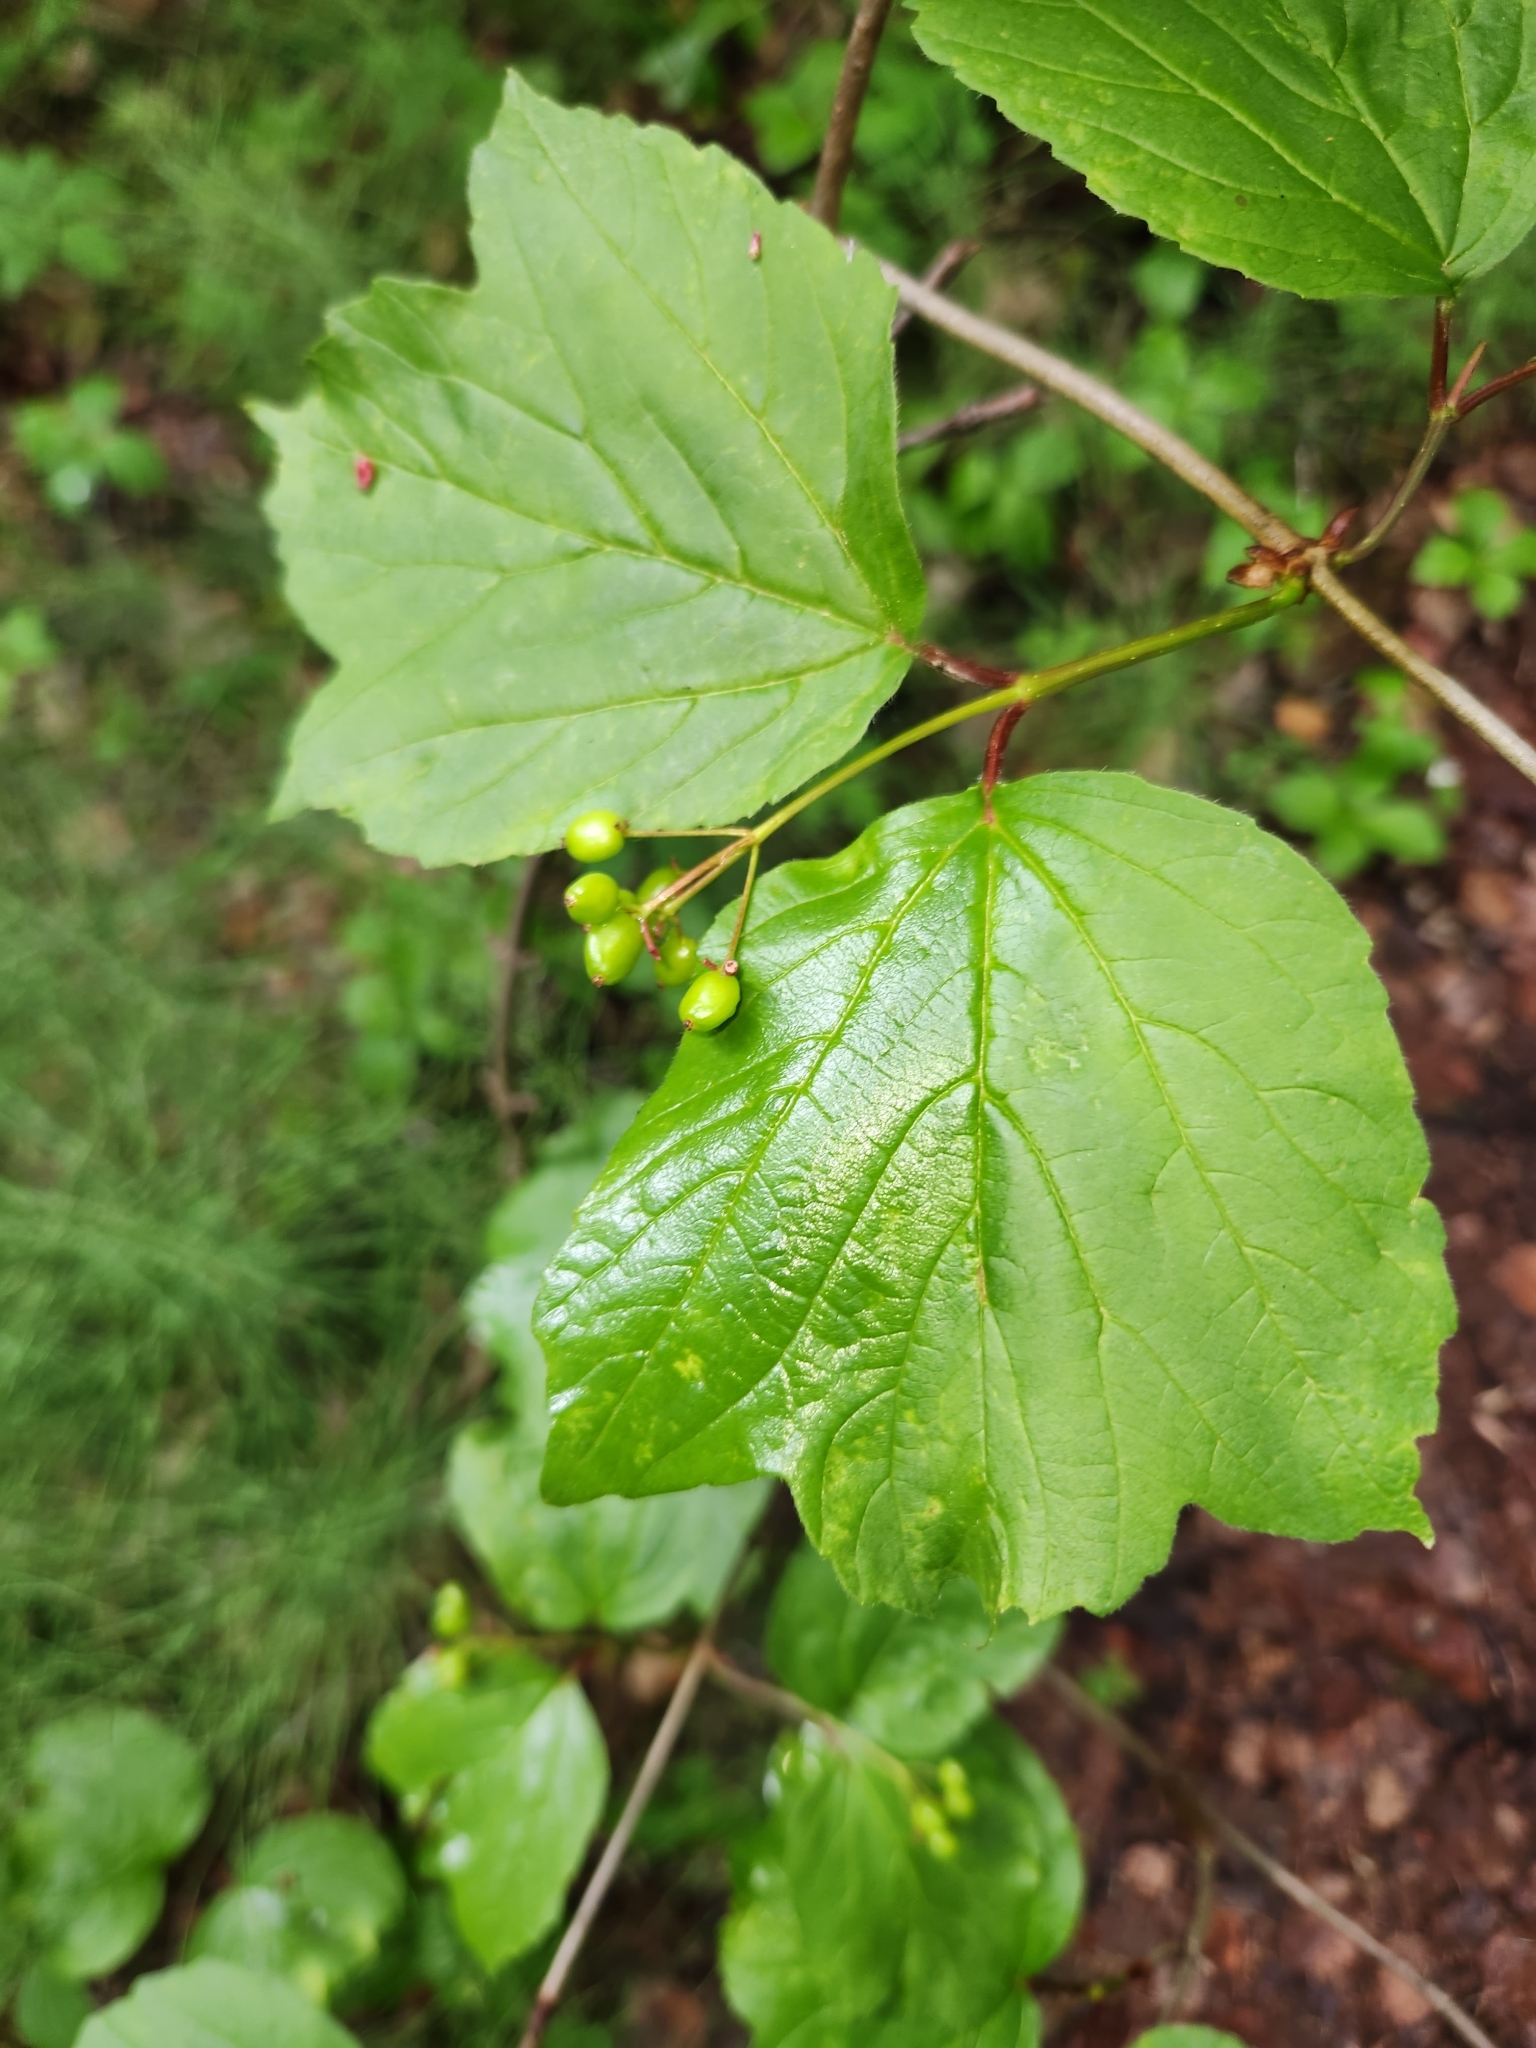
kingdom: Plantae
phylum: Tracheophyta
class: Magnoliopsida
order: Dipsacales
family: Viburnaceae
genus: Viburnum
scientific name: Viburnum edule
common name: Mooseberry
